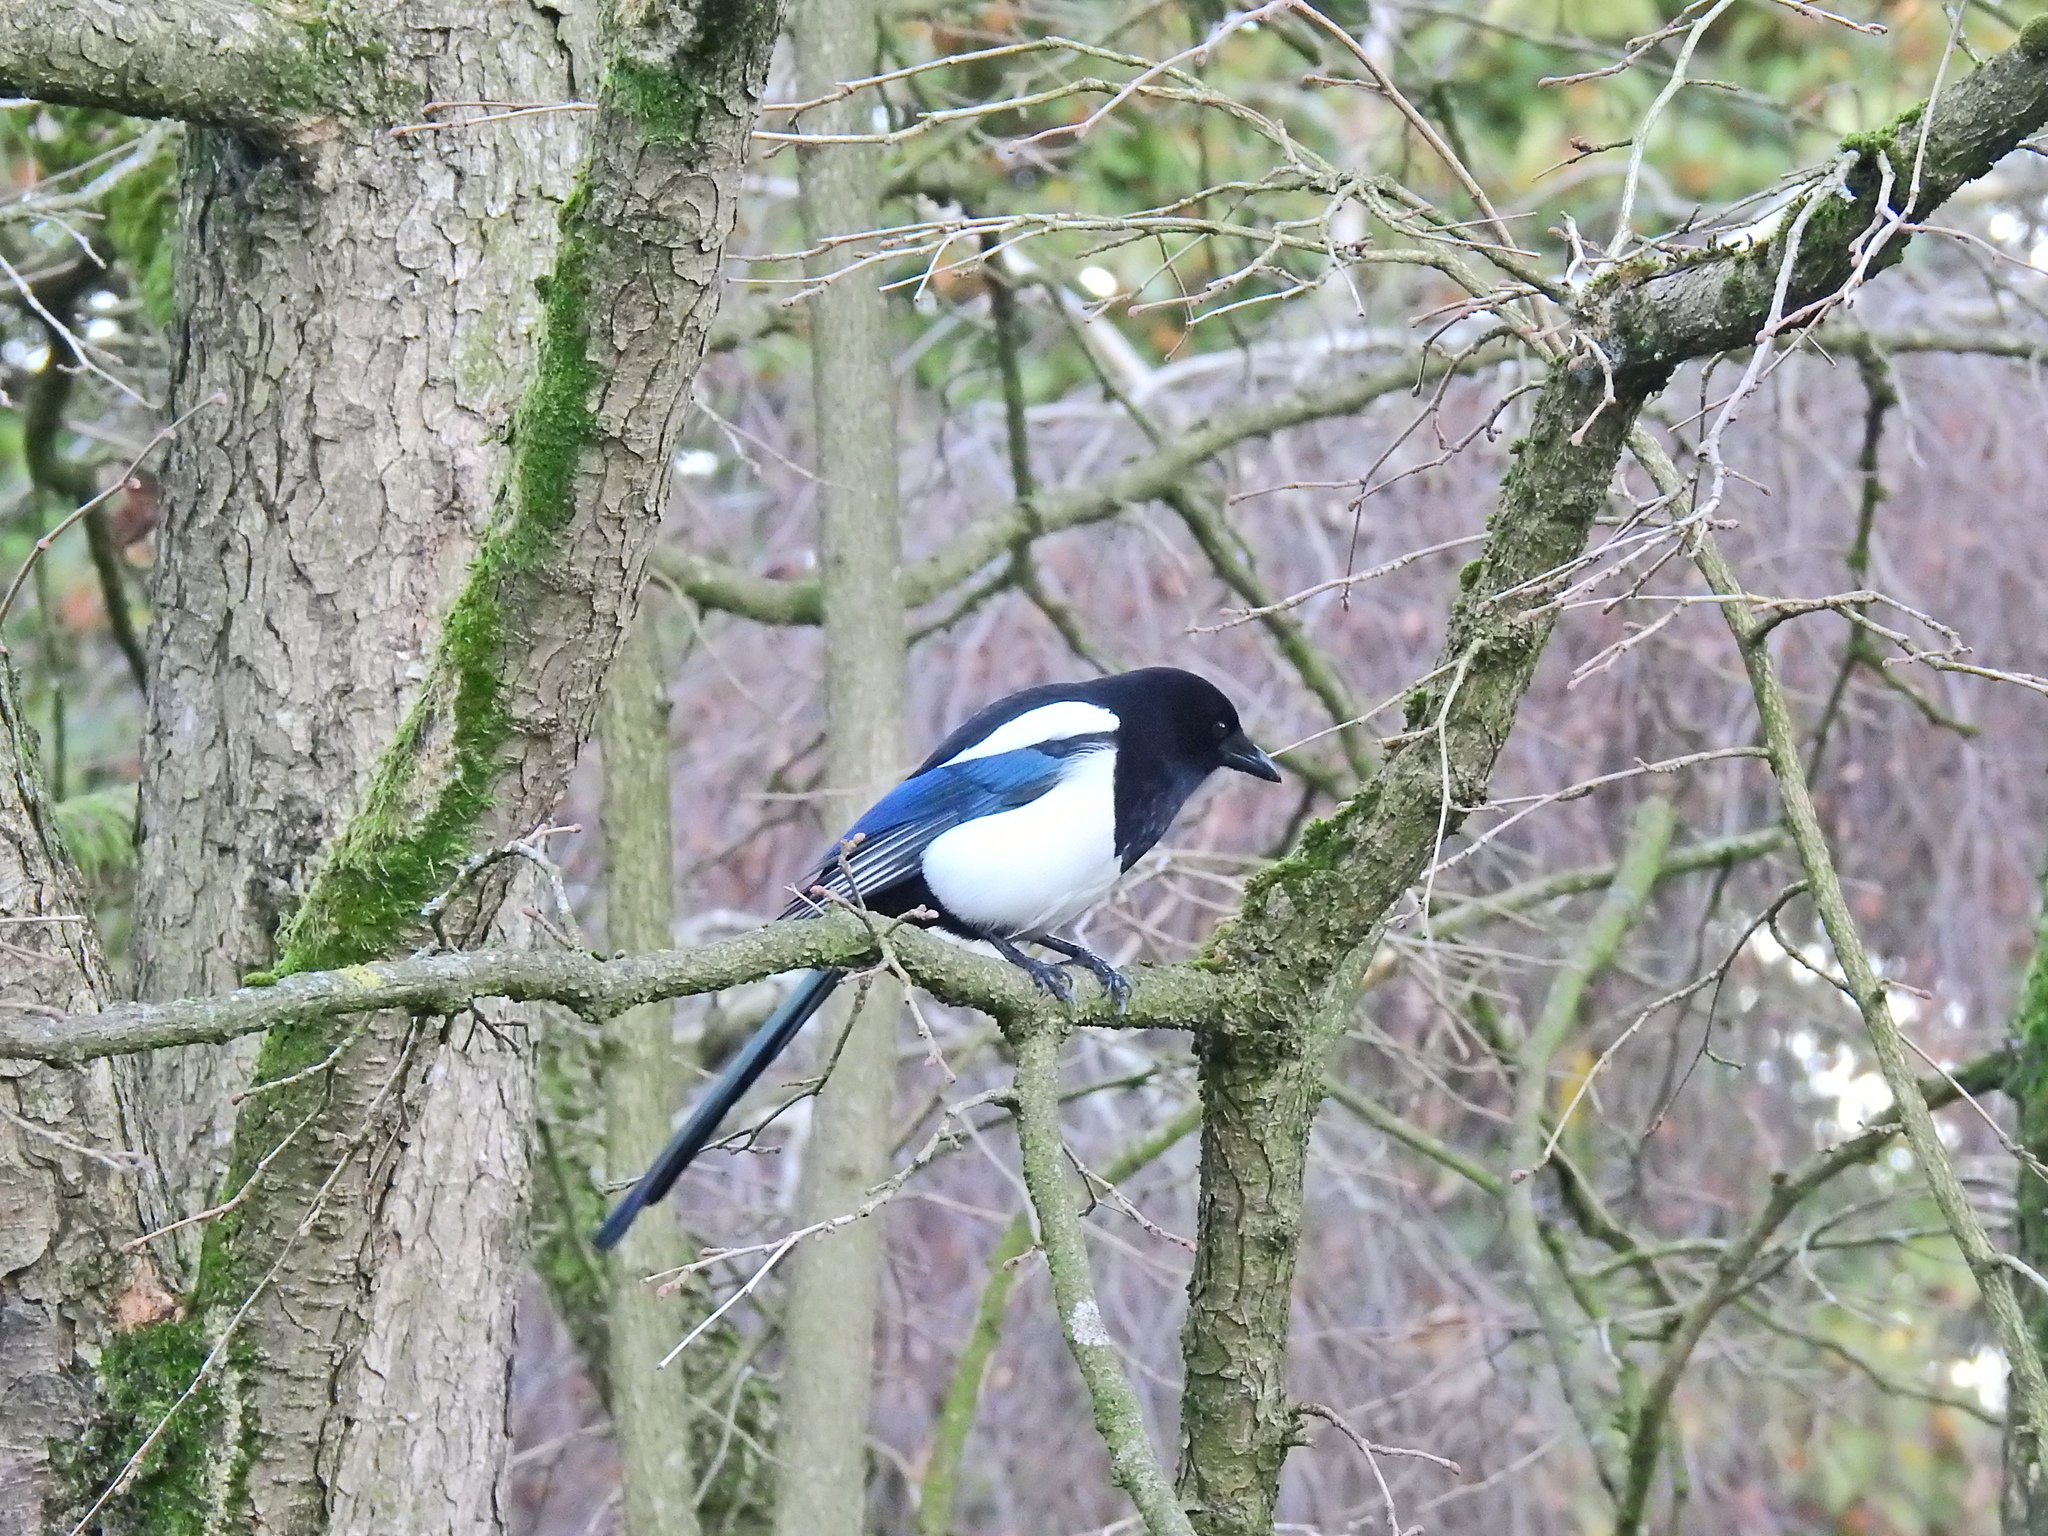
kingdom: Animalia
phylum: Chordata
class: Aves
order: Passeriformes
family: Corvidae
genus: Pica
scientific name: Pica pica
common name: Eurasian magpie
